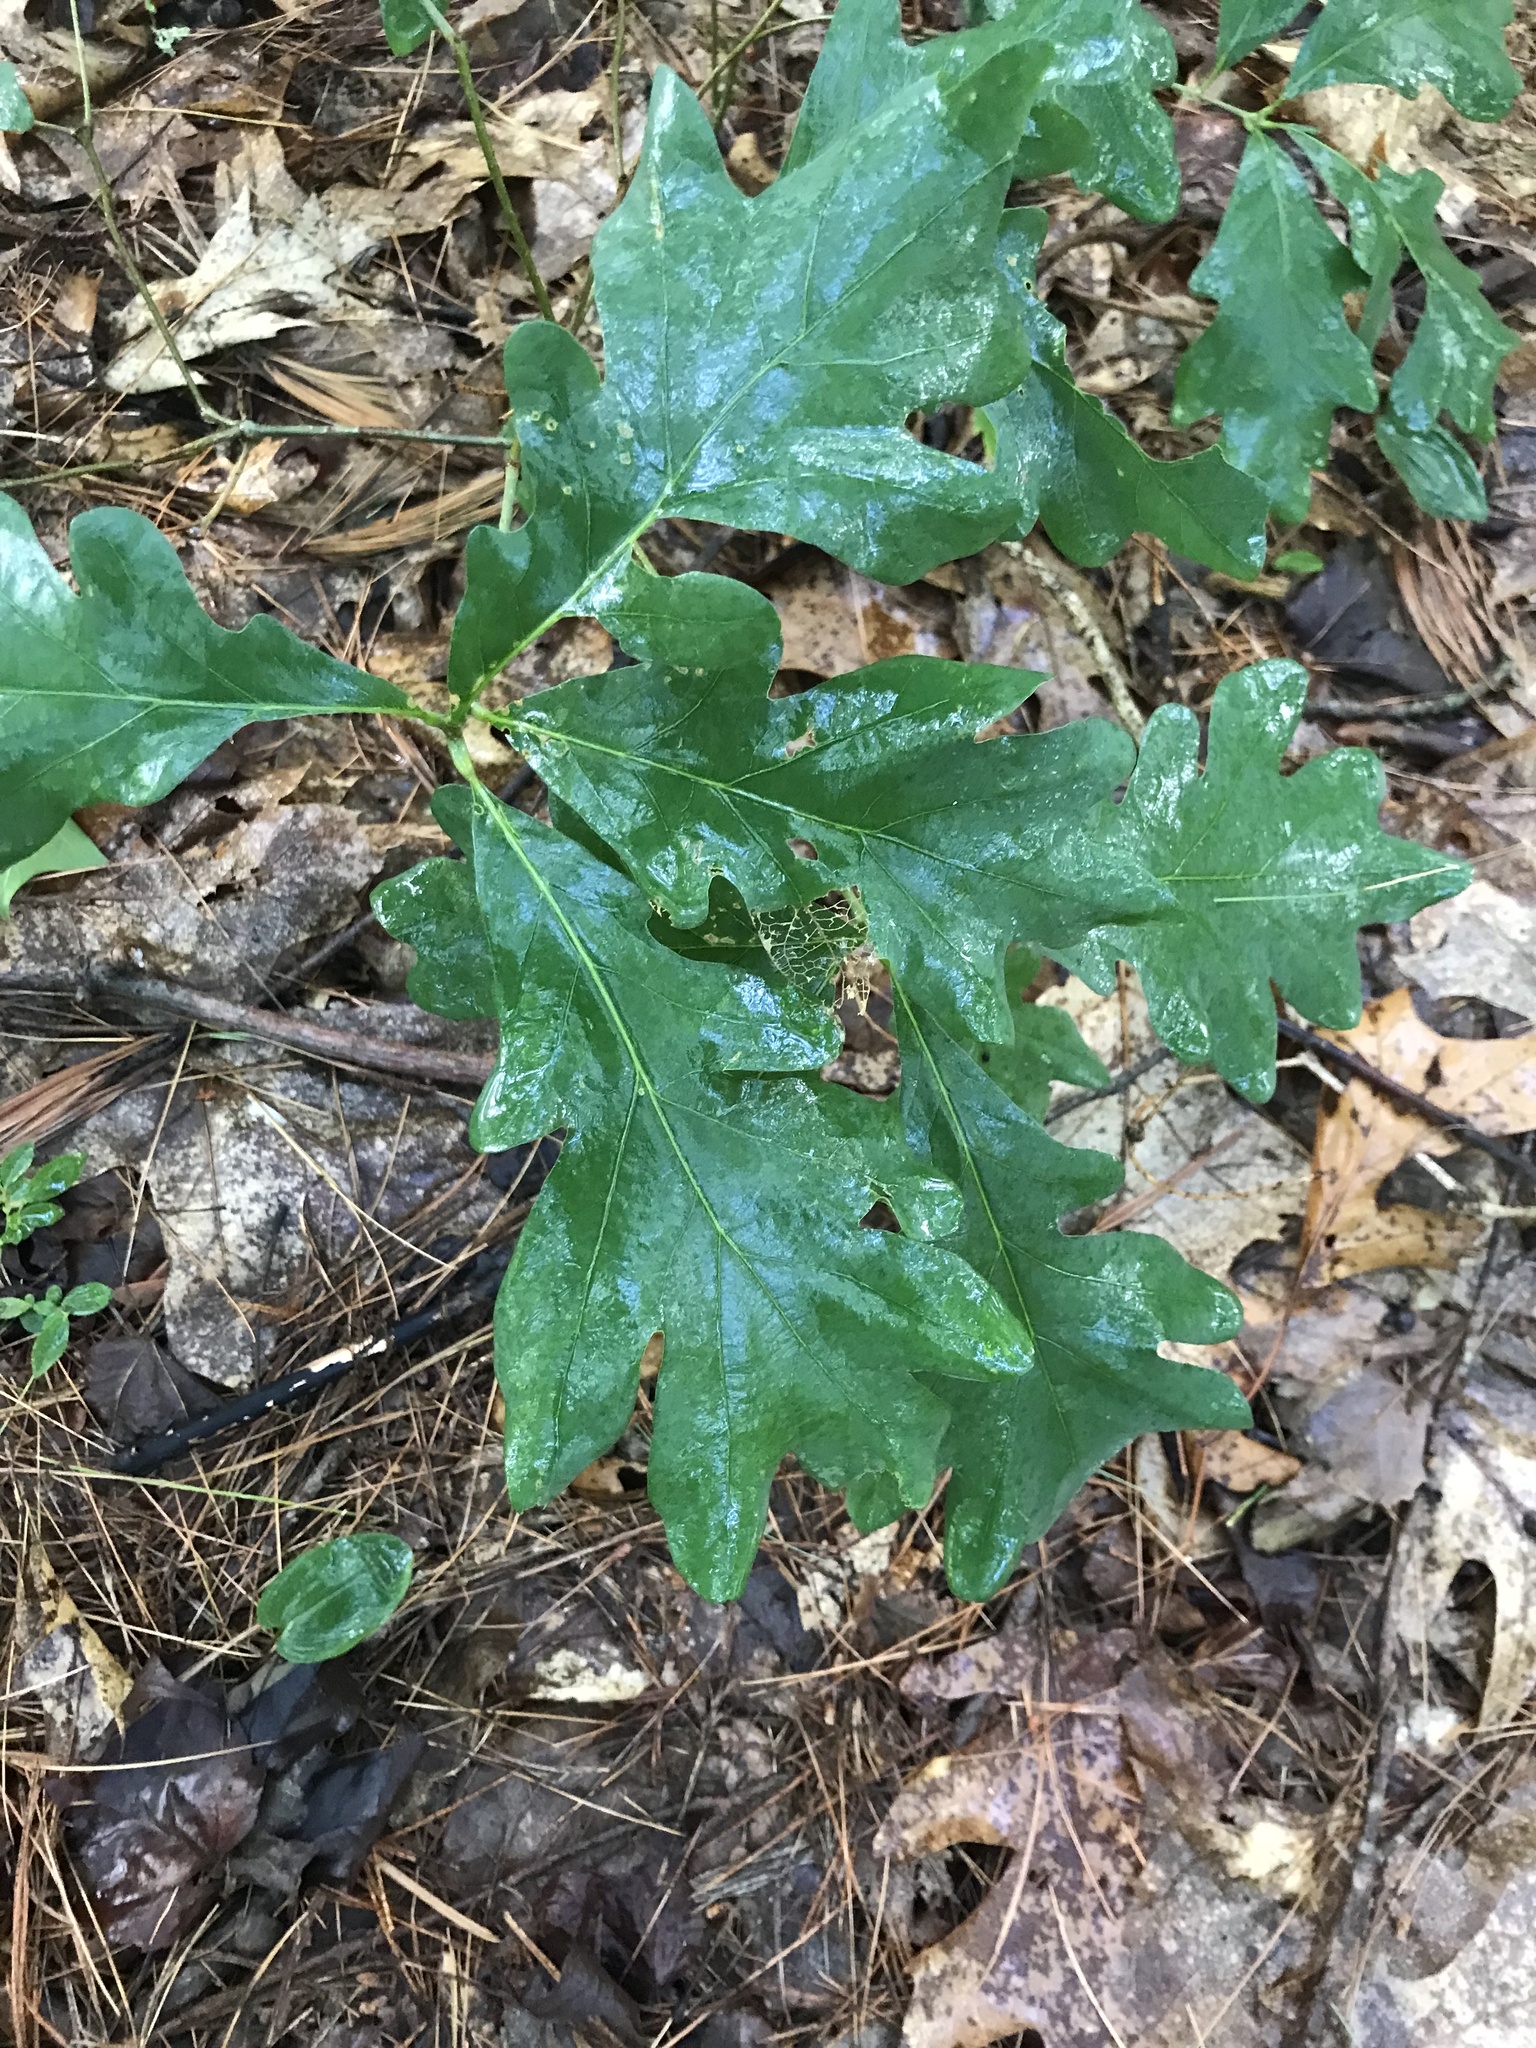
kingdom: Plantae
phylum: Tracheophyta
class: Magnoliopsida
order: Fagales
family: Fagaceae
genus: Quercus
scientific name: Quercus alba
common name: White oak
